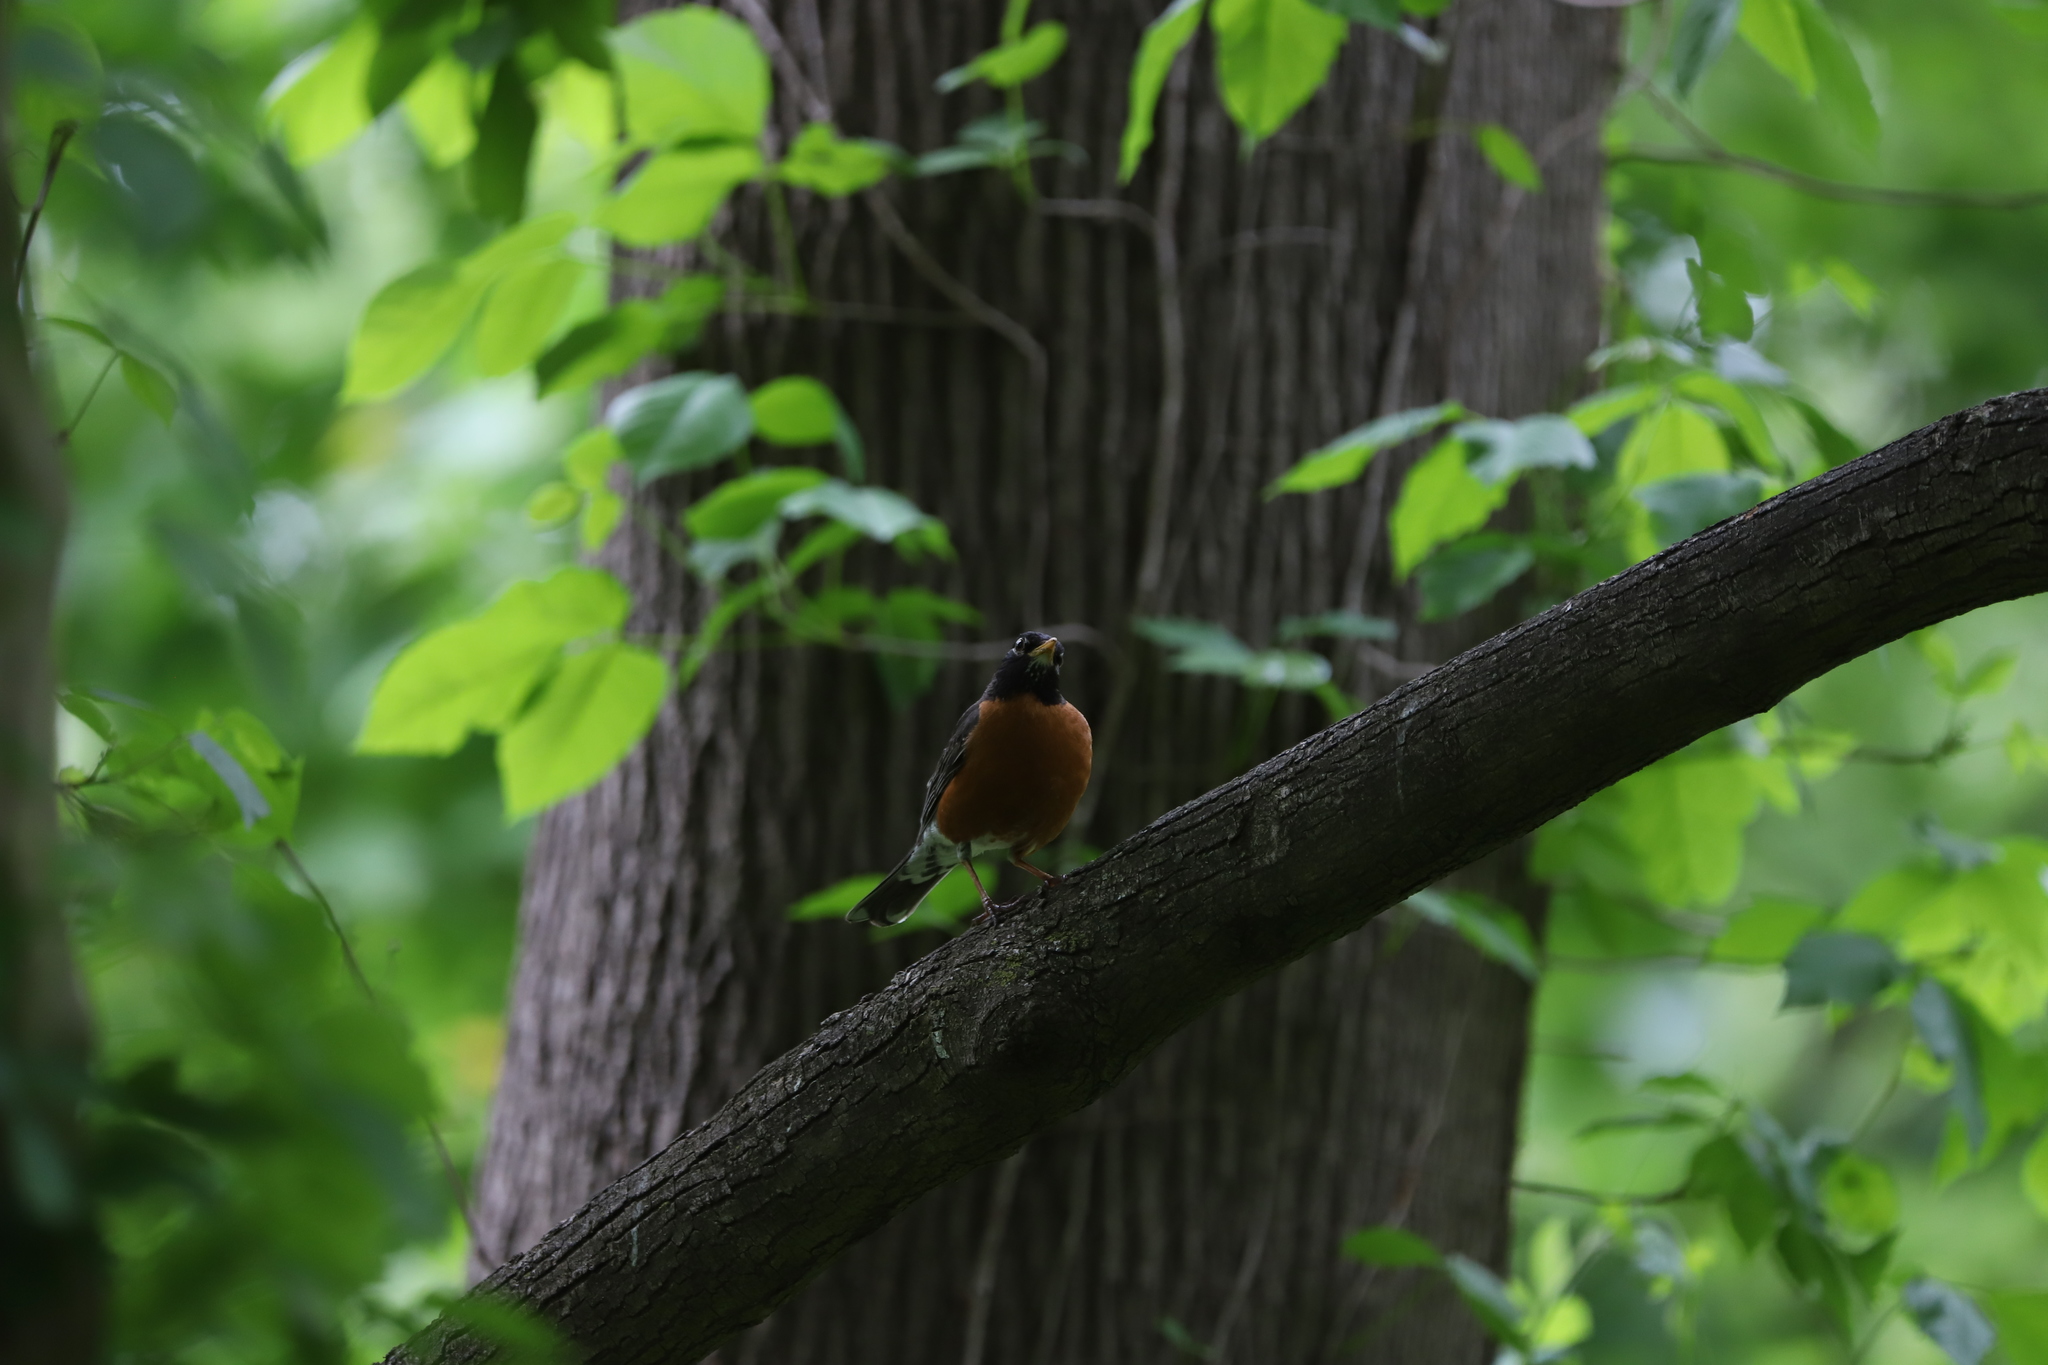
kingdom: Animalia
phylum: Chordata
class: Aves
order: Passeriformes
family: Turdidae
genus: Turdus
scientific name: Turdus migratorius
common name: American robin
